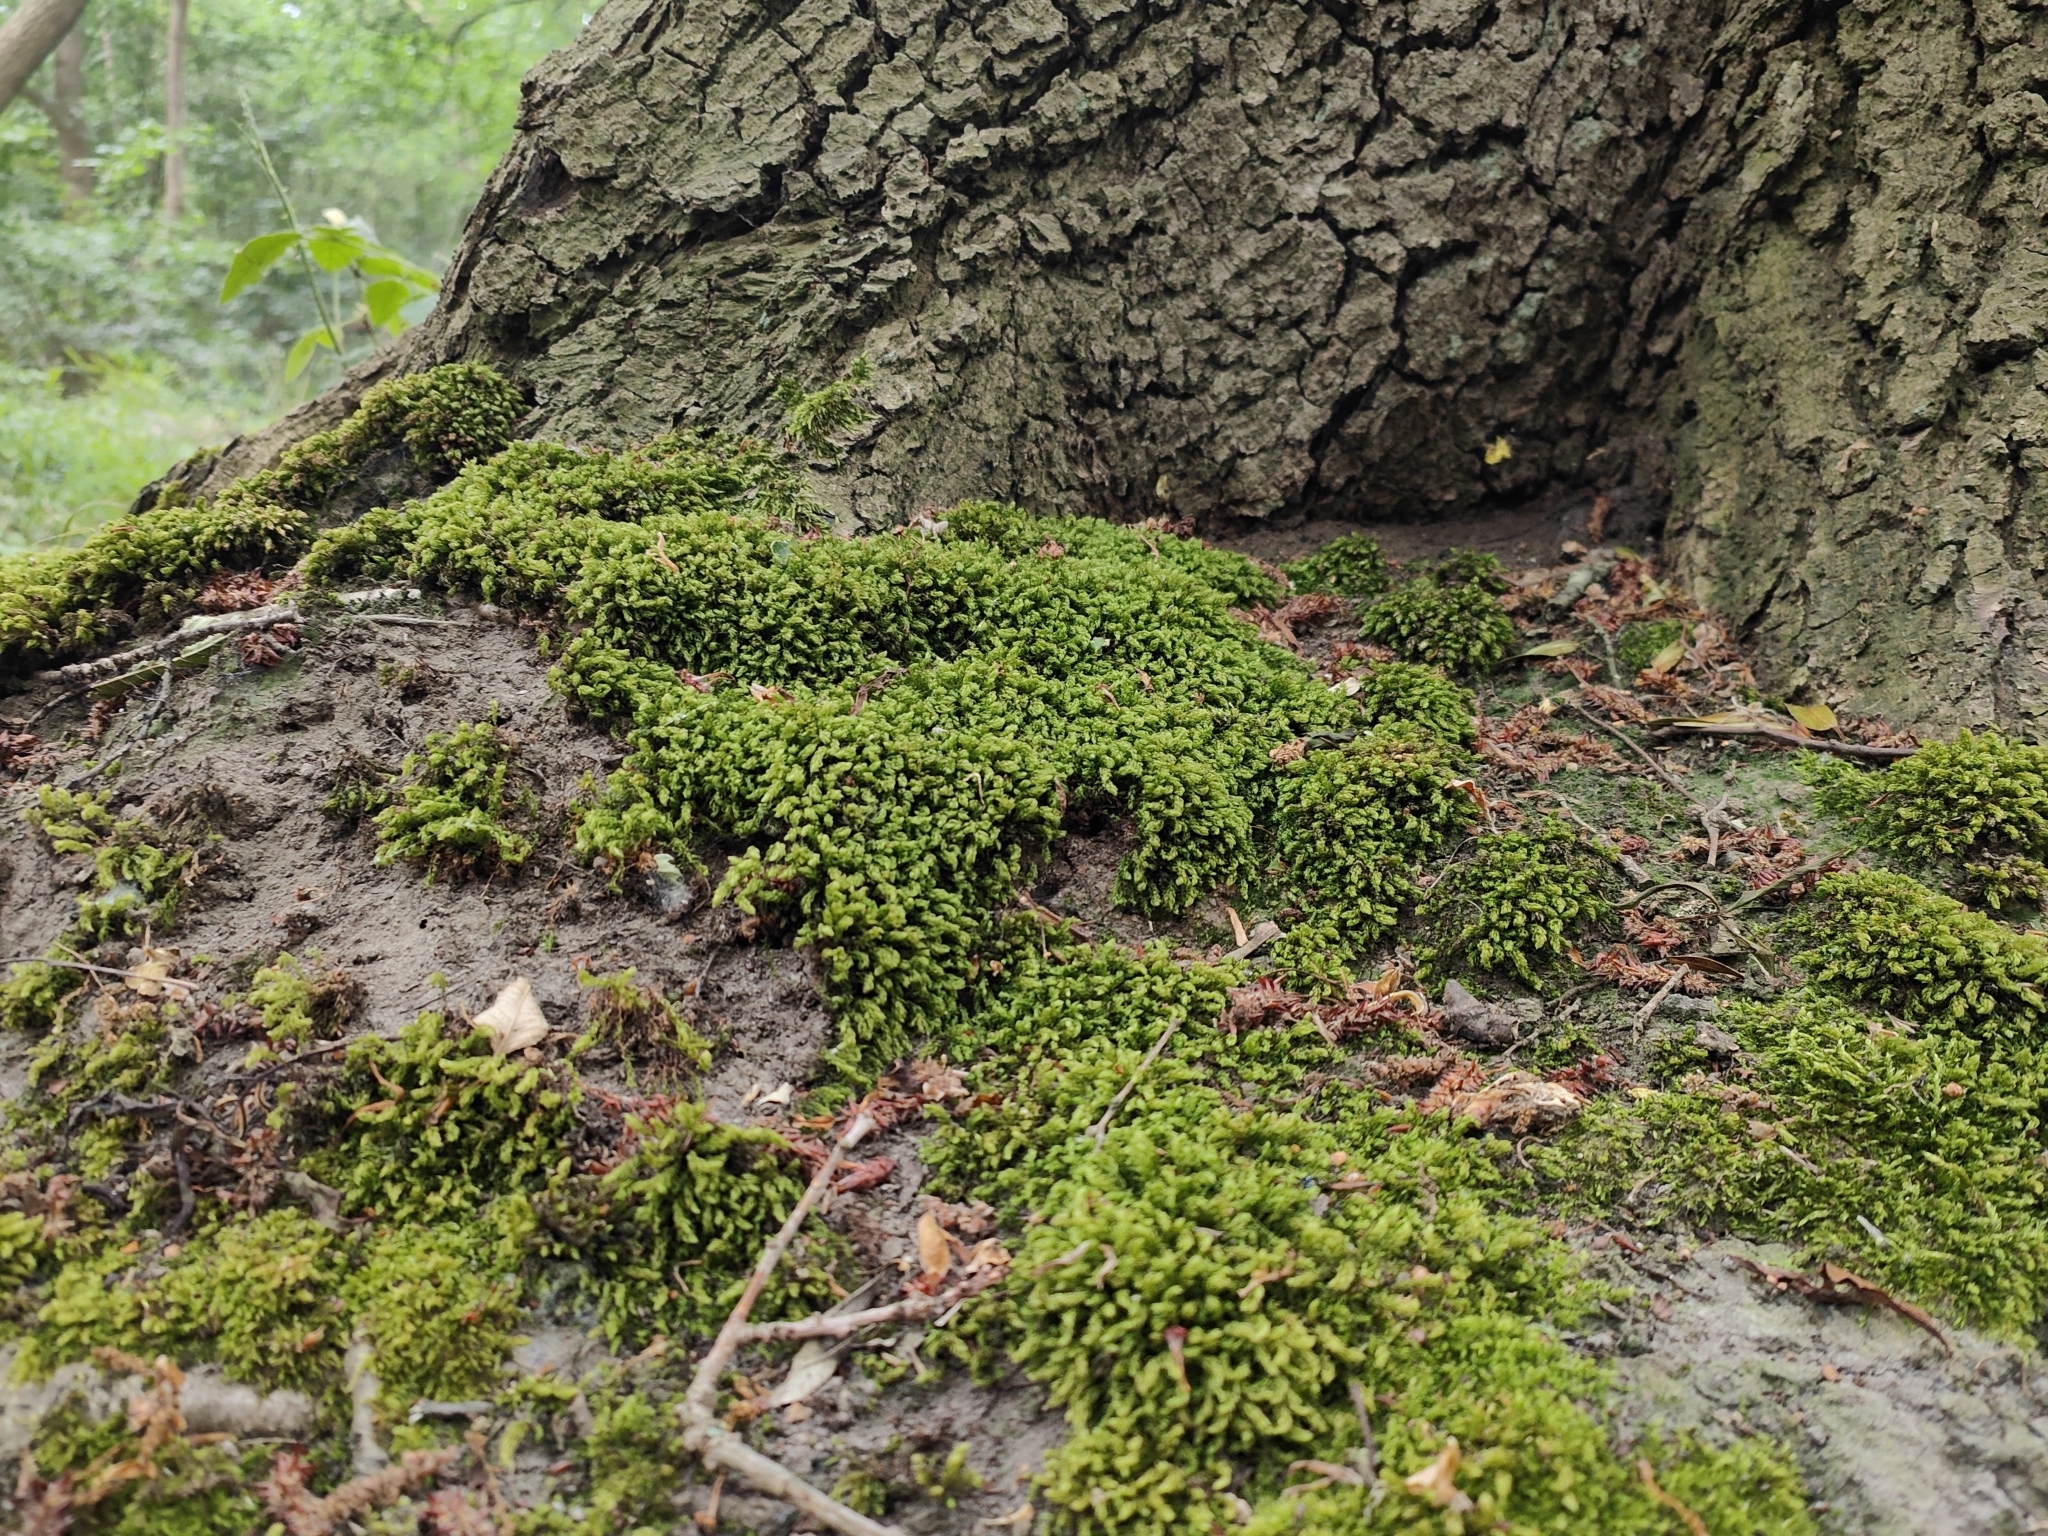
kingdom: Plantae
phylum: Bryophyta
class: Bryopsida
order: Bryales
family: Mniaceae
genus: Mnium
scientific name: Mnium hornum
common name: Swan's-neck leafy moss
